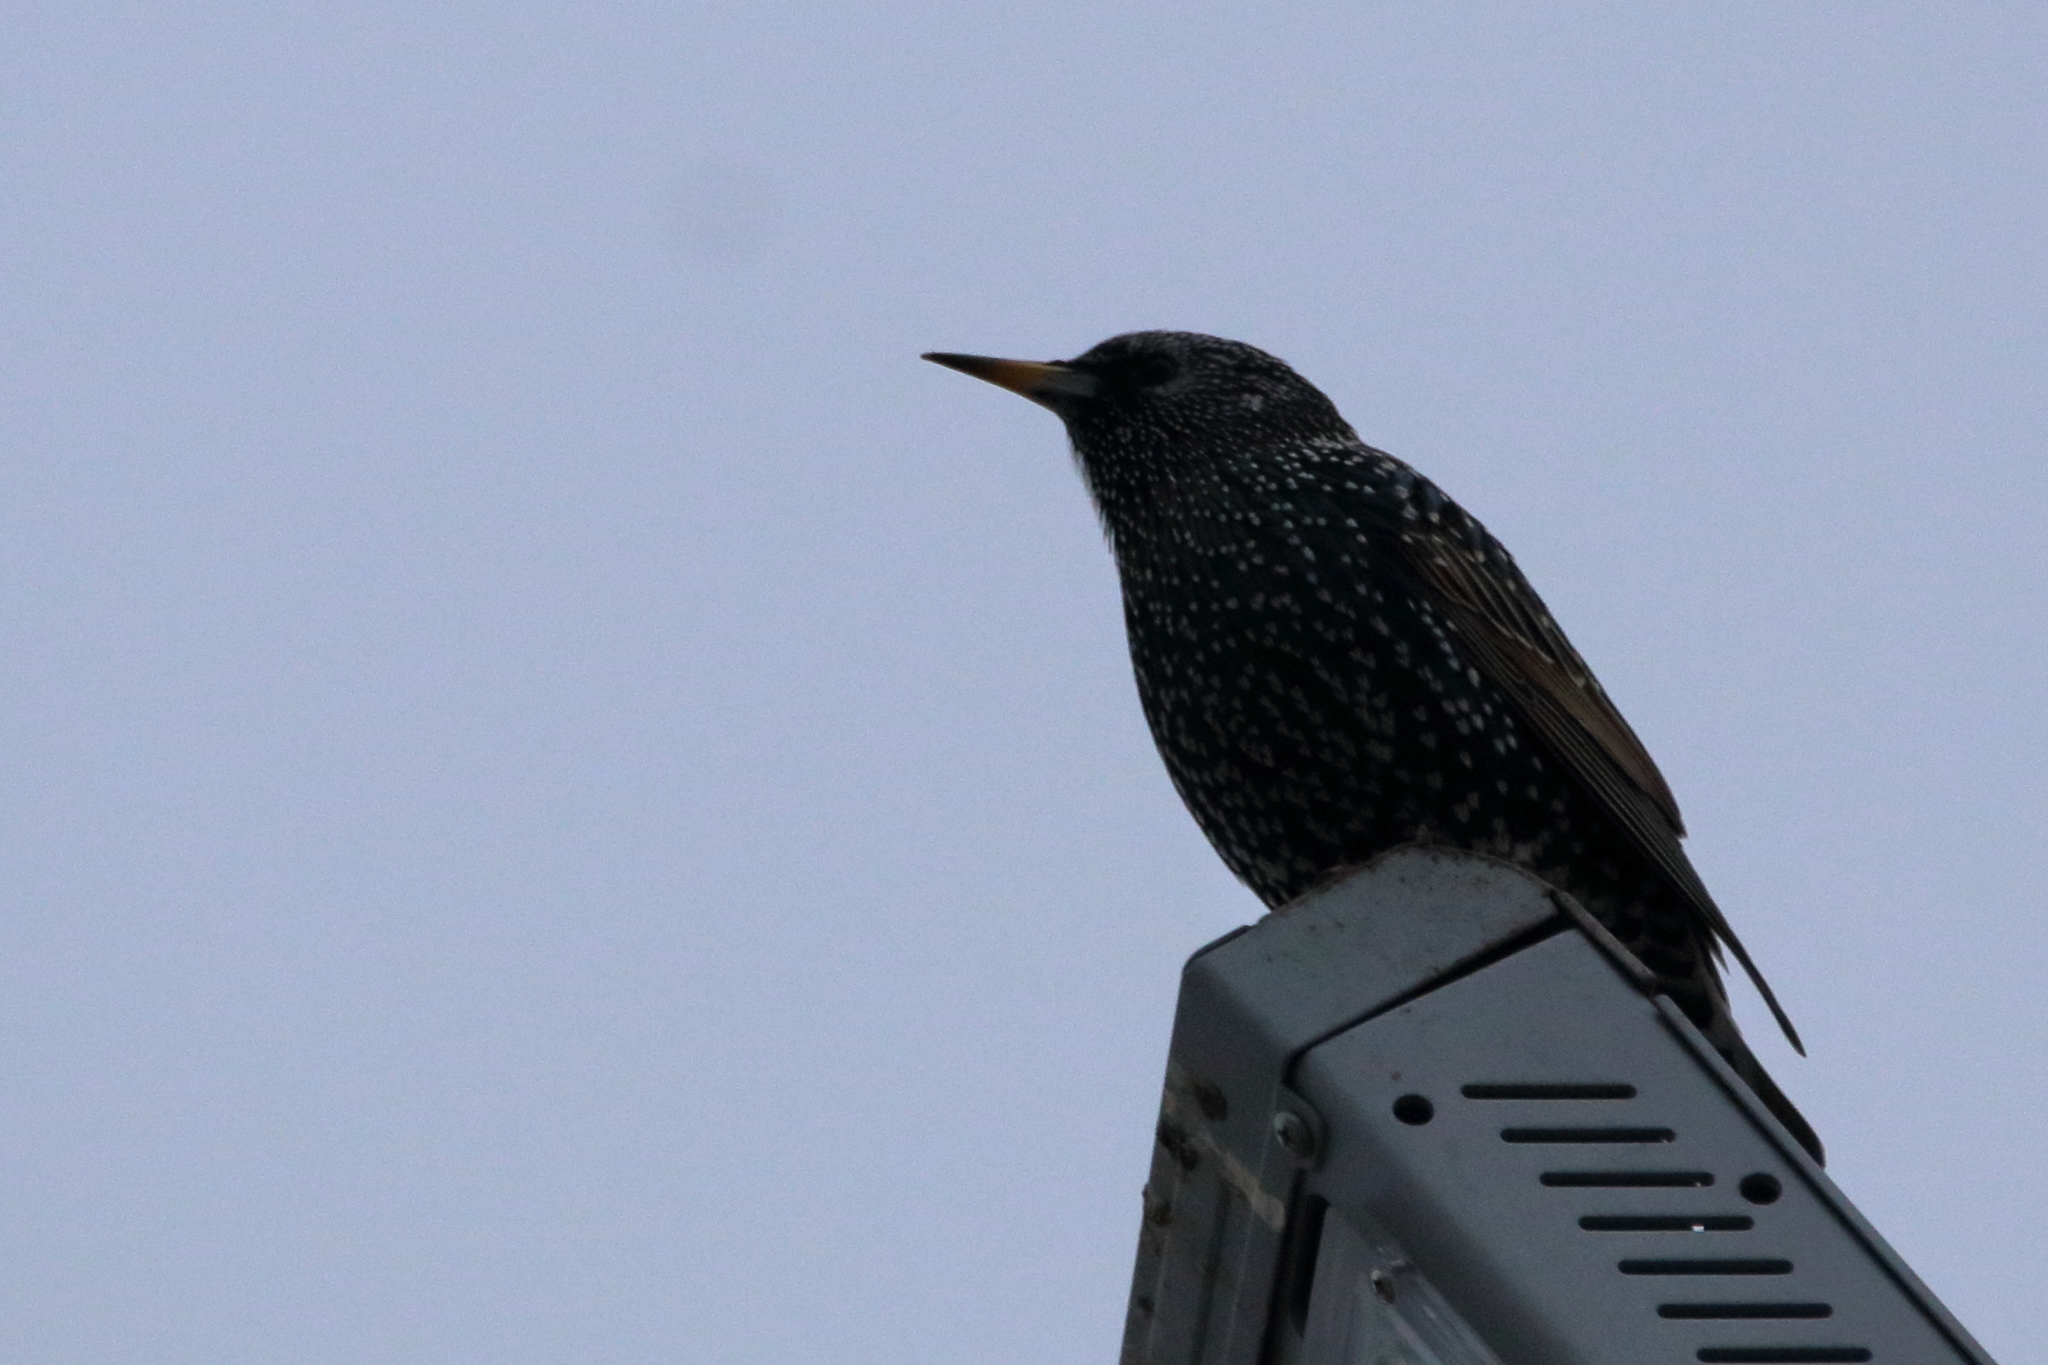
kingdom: Animalia
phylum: Chordata
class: Aves
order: Passeriformes
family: Sturnidae
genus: Sturnus
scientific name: Sturnus vulgaris
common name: Common starling
